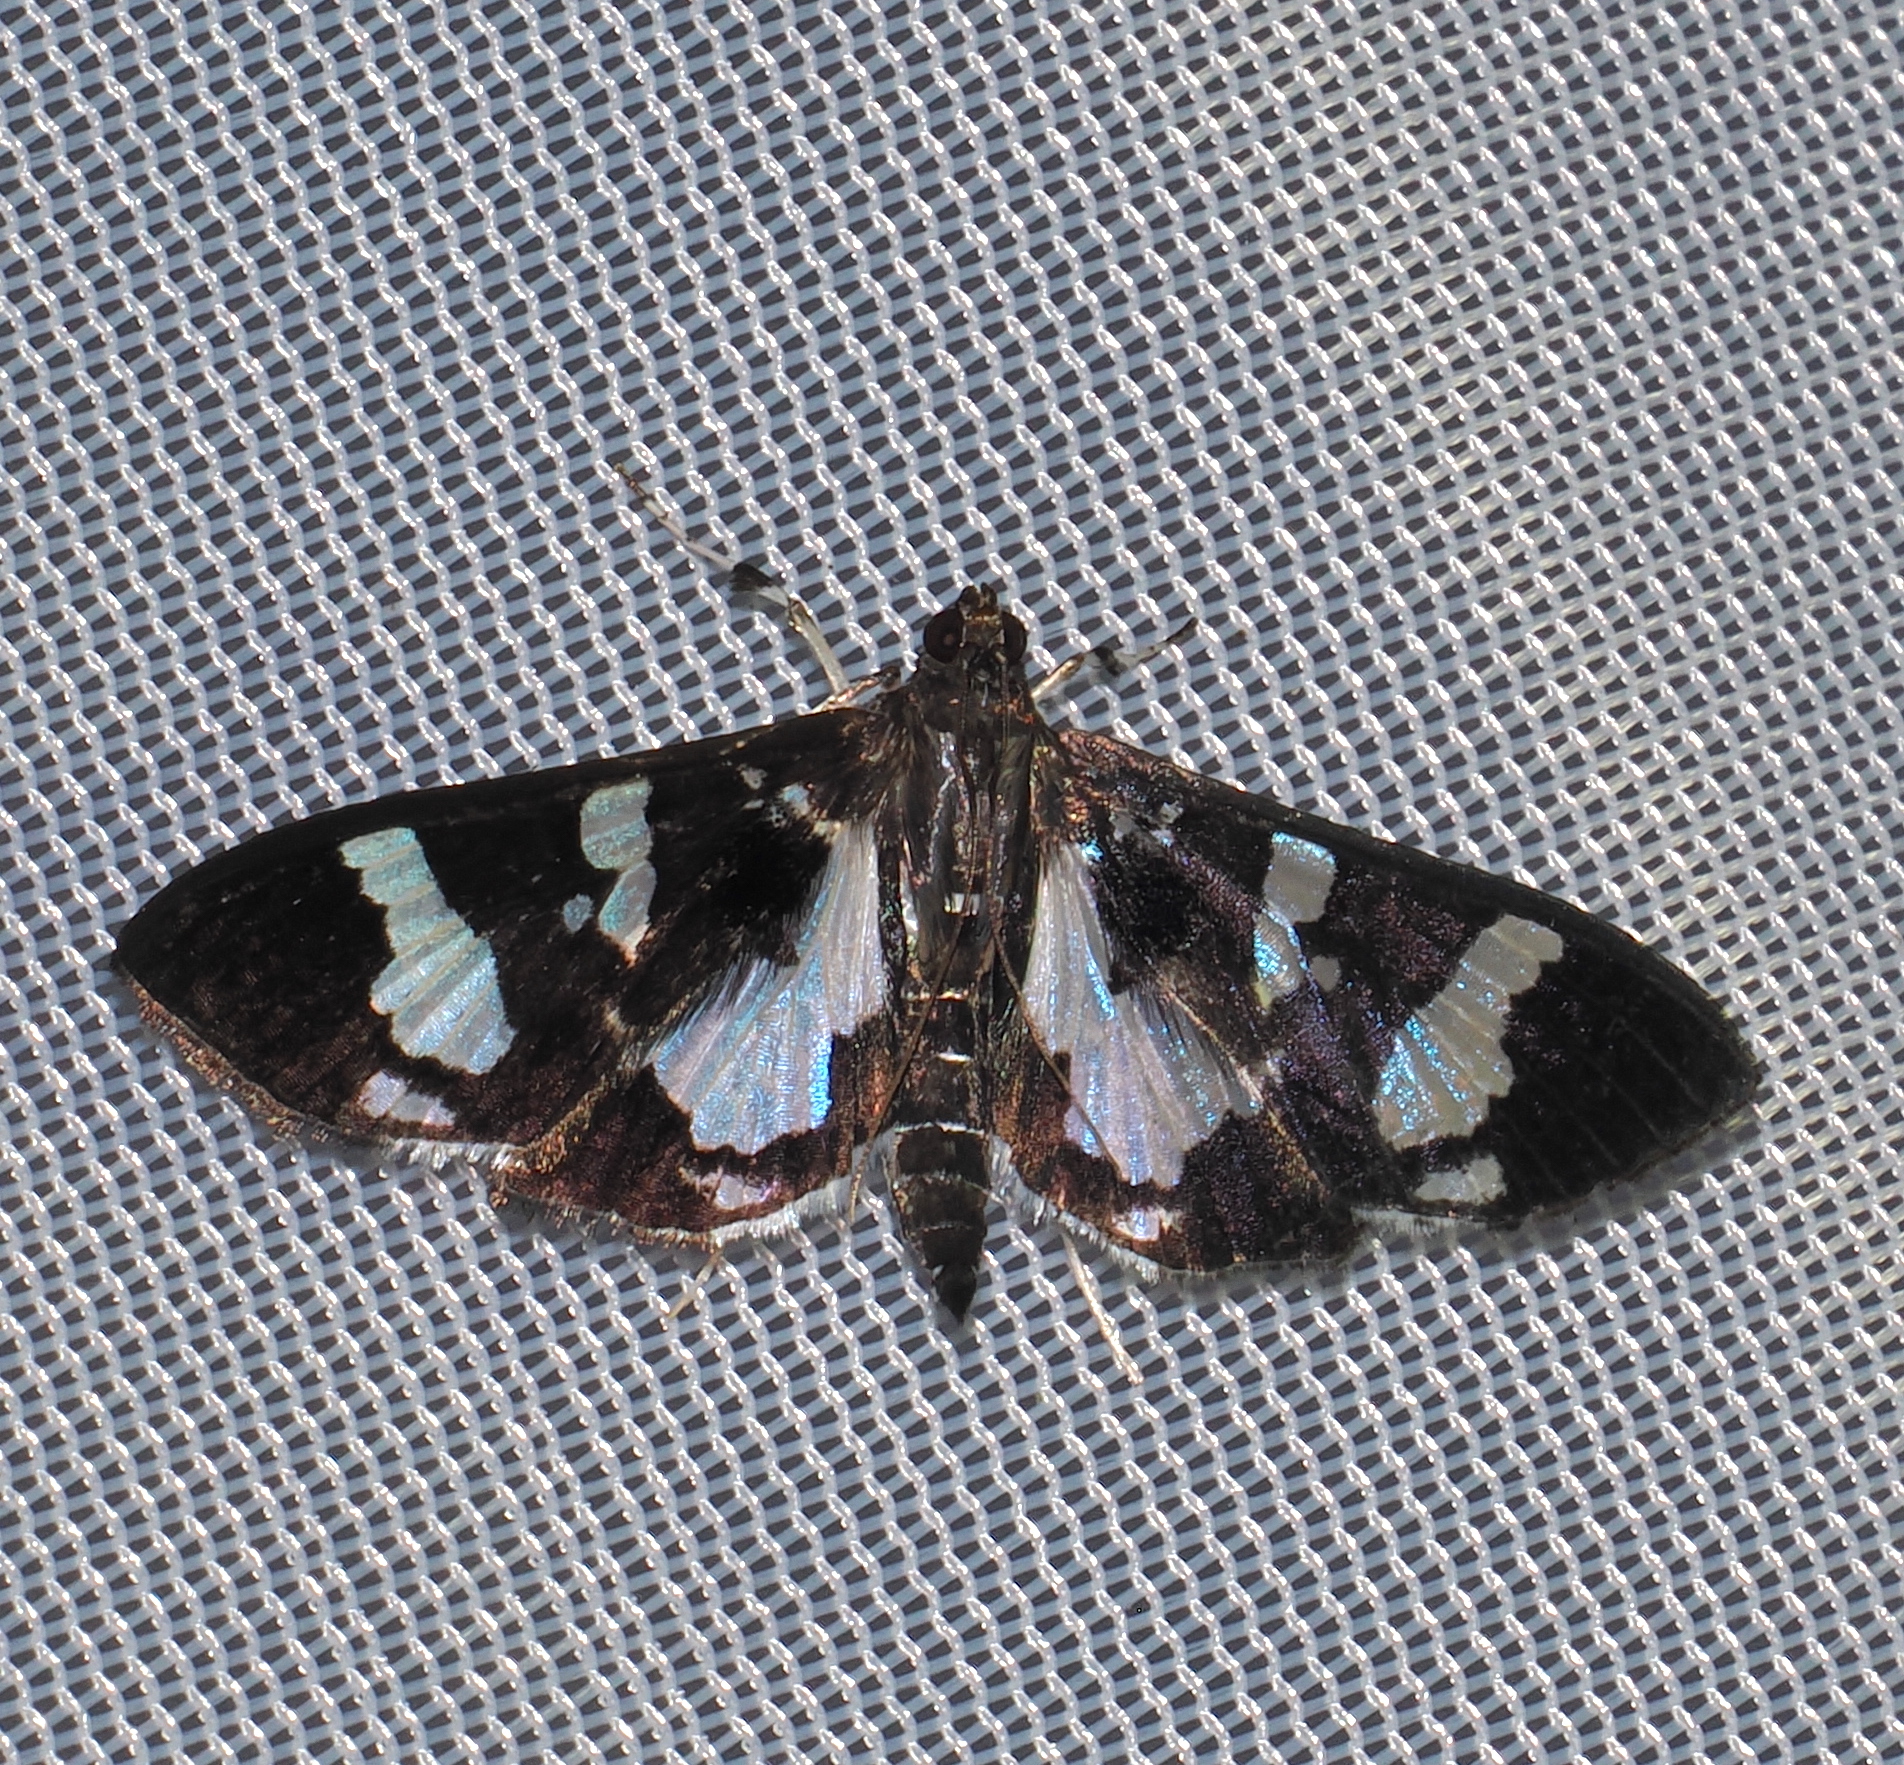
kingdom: Animalia
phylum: Arthropoda
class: Insecta
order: Lepidoptera
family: Crambidae
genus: Desmia
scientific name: Desmia bajulalis
